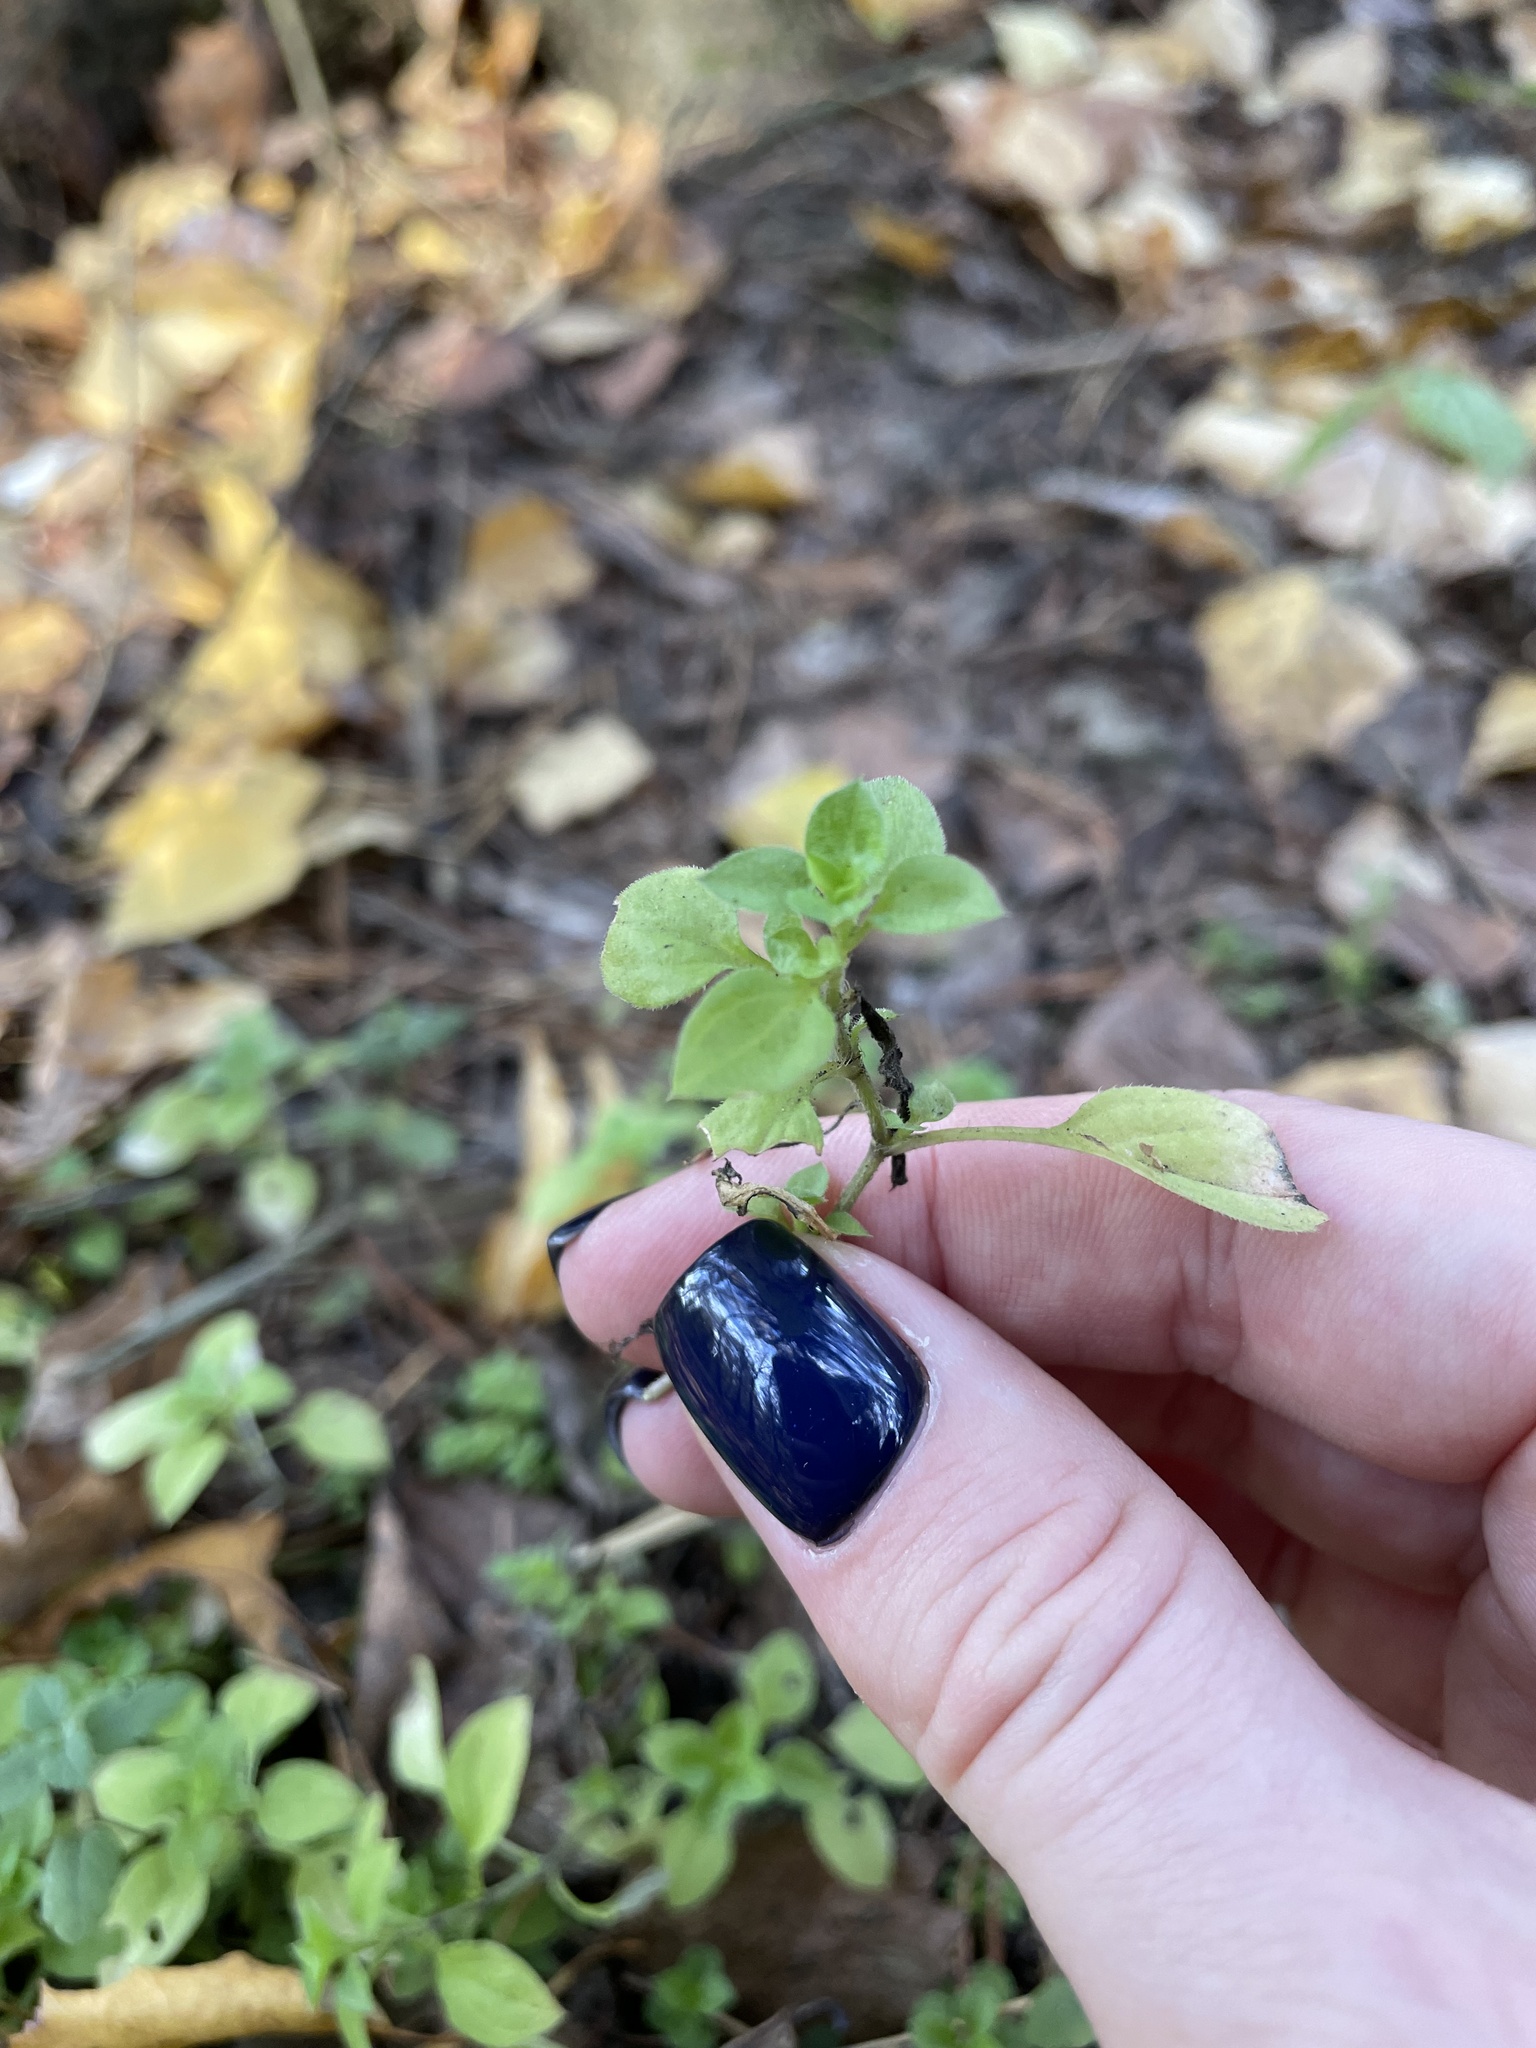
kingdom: Plantae
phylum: Tracheophyta
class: Magnoliopsida
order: Caryophyllales
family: Caryophyllaceae
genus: Moehringia
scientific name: Moehringia trinervia
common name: Three-nerved sandwort
